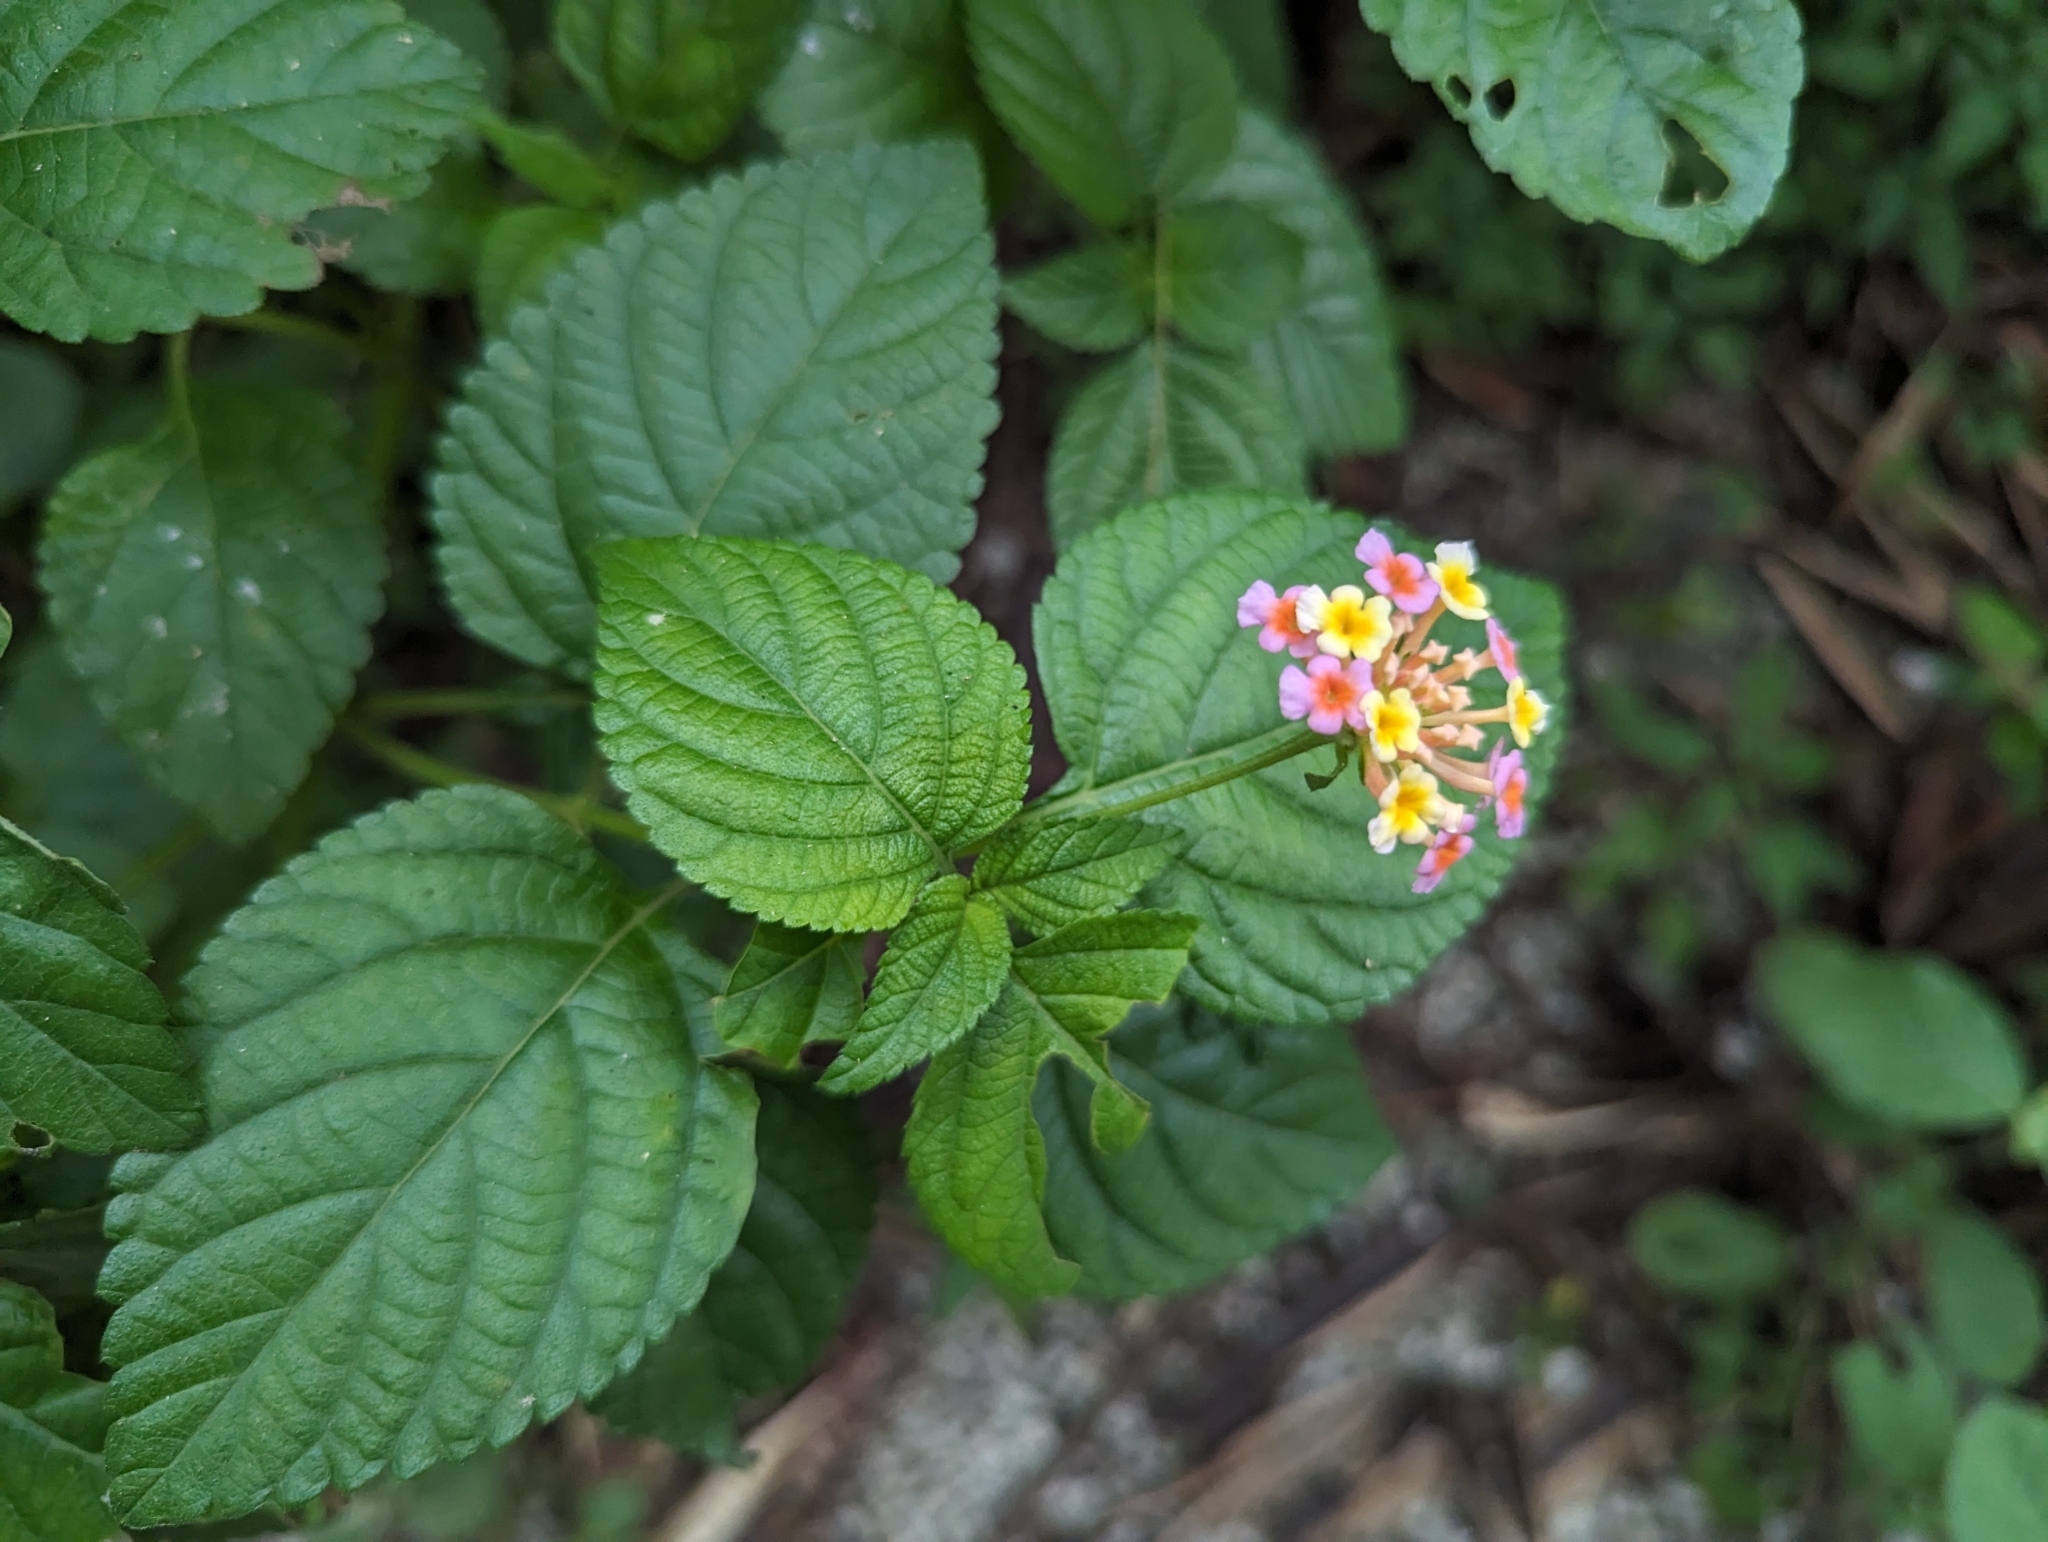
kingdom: Plantae
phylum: Tracheophyta
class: Magnoliopsida
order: Lamiales
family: Verbenaceae
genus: Lantana
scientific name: Lantana camara
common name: Lantana
